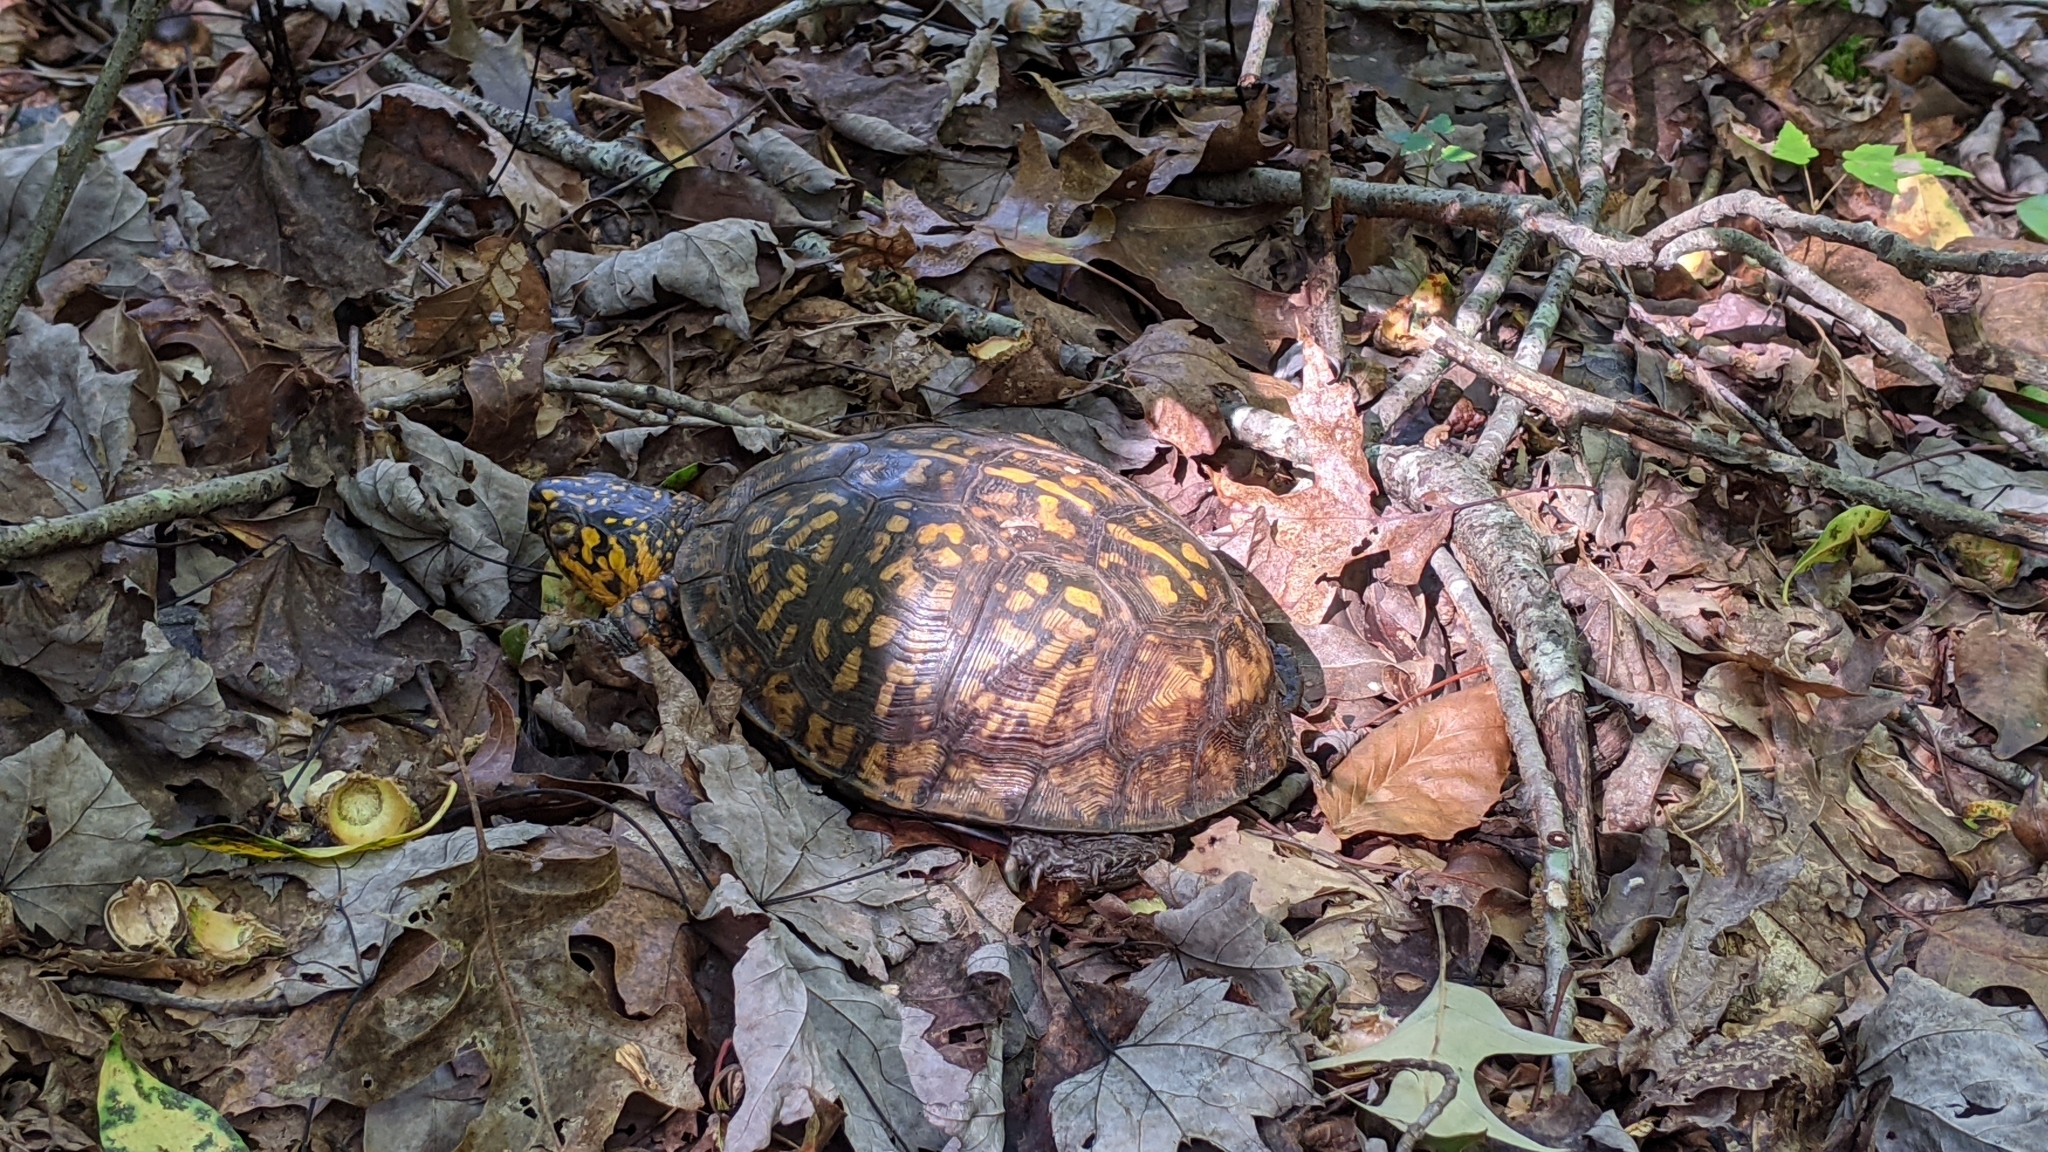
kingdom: Animalia
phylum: Chordata
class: Testudines
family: Emydidae
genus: Terrapene
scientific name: Terrapene carolina
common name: Common box turtle
